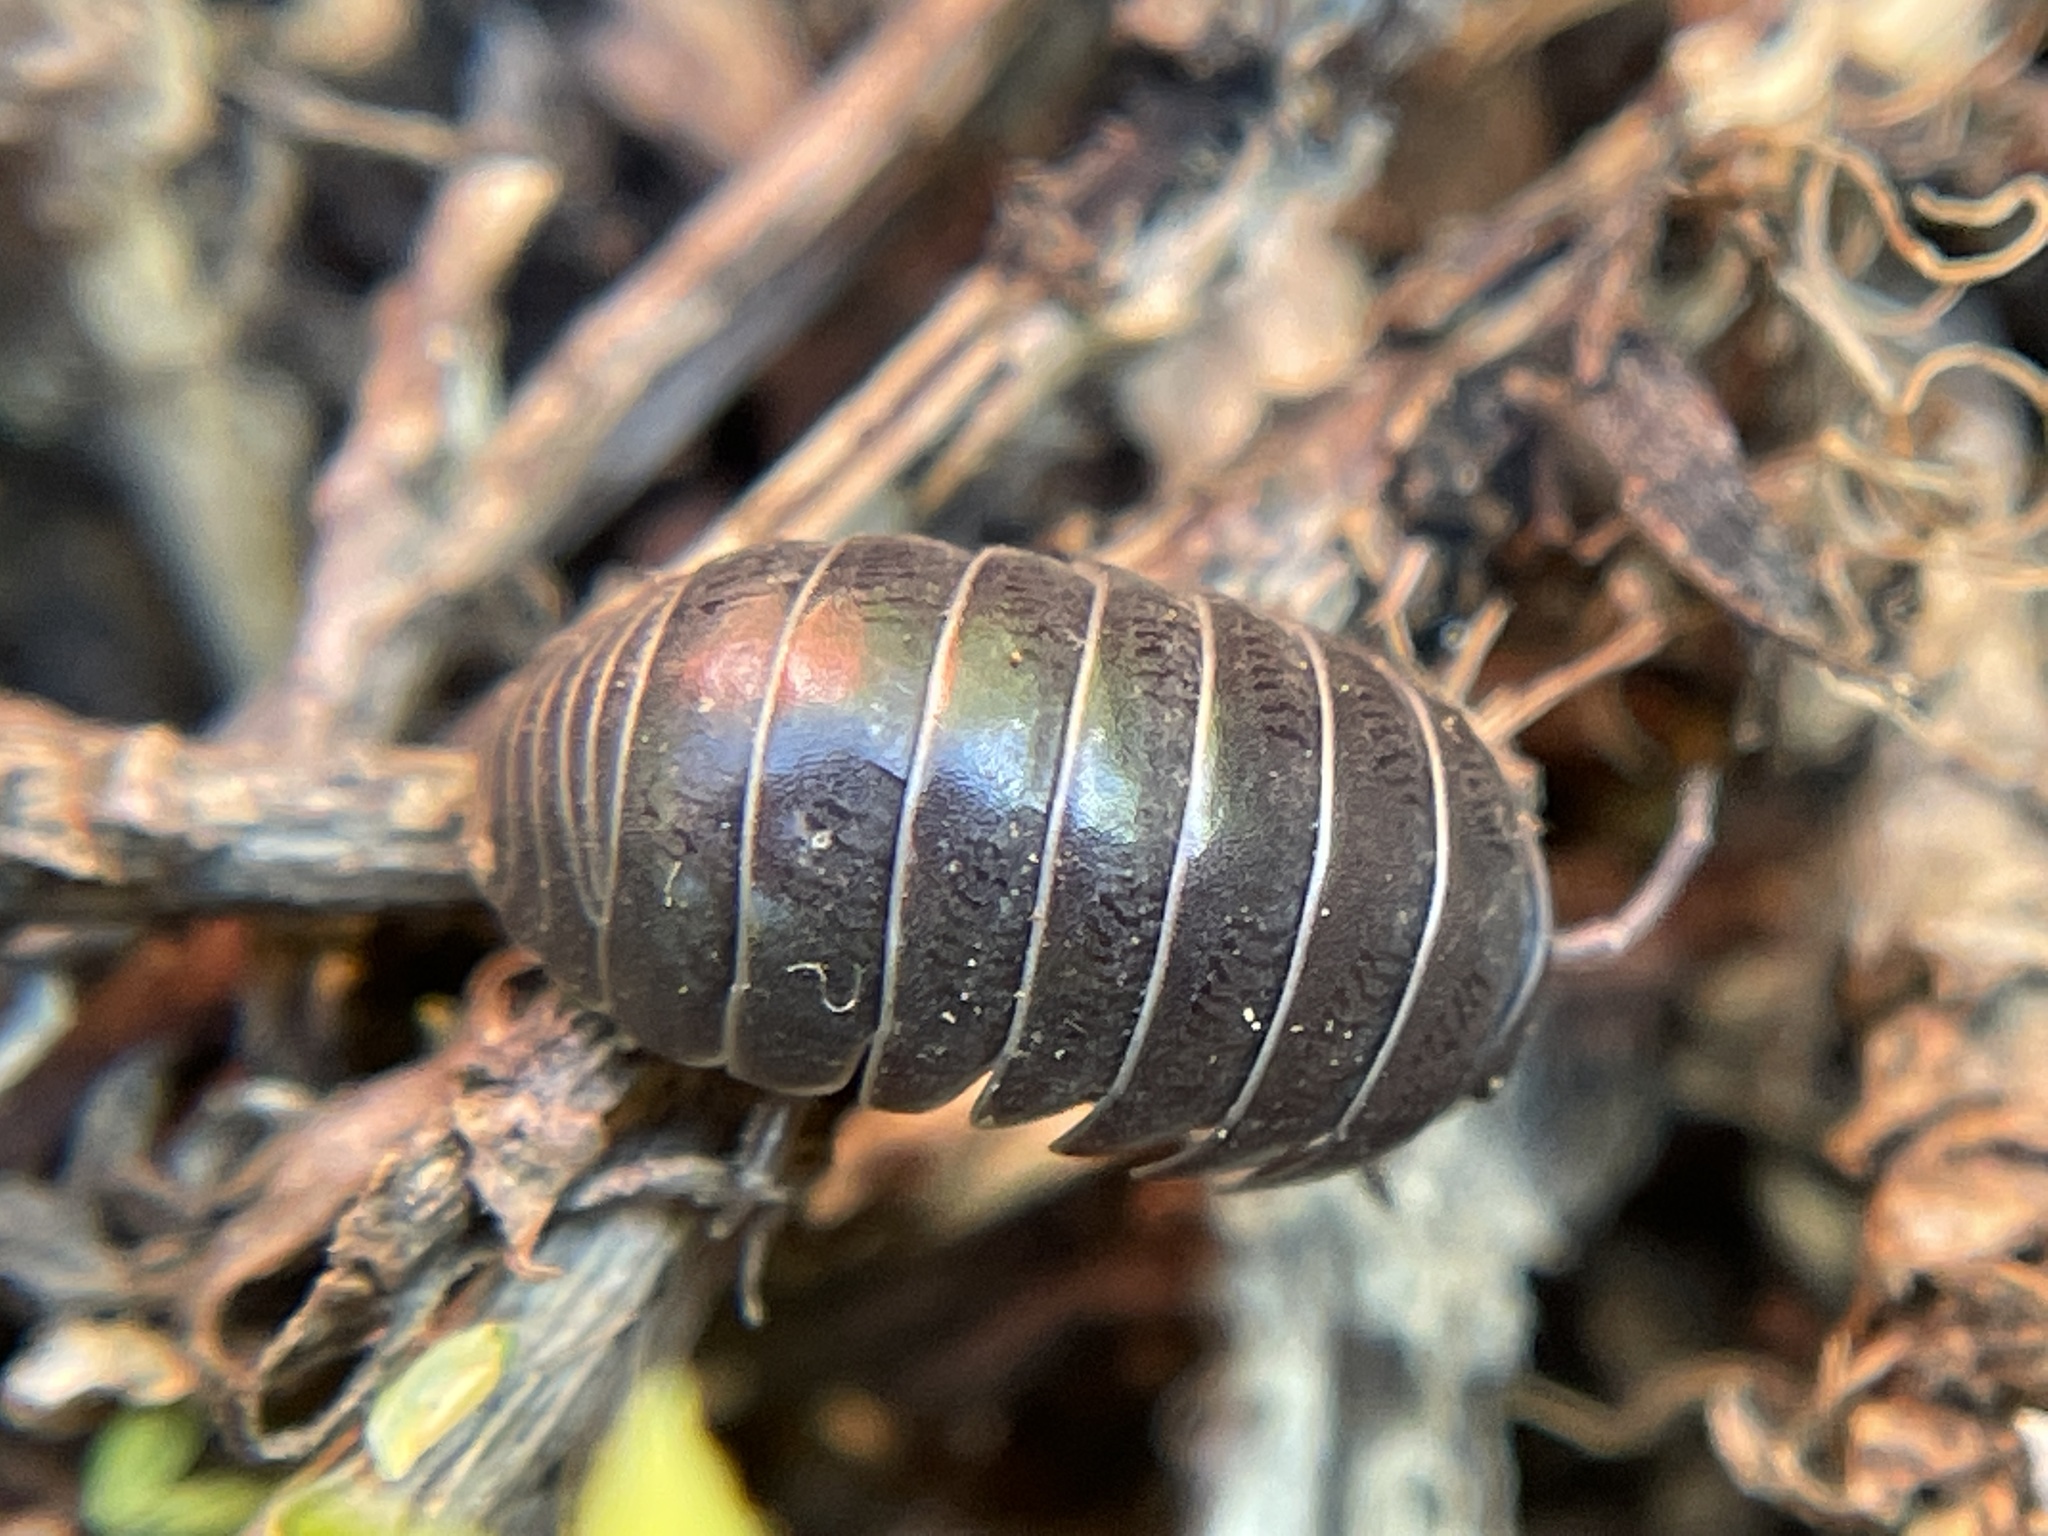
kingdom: Animalia
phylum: Arthropoda
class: Malacostraca
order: Isopoda
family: Armadillidiidae
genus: Armadillidium
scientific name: Armadillidium vulgare
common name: Common pill woodlouse
